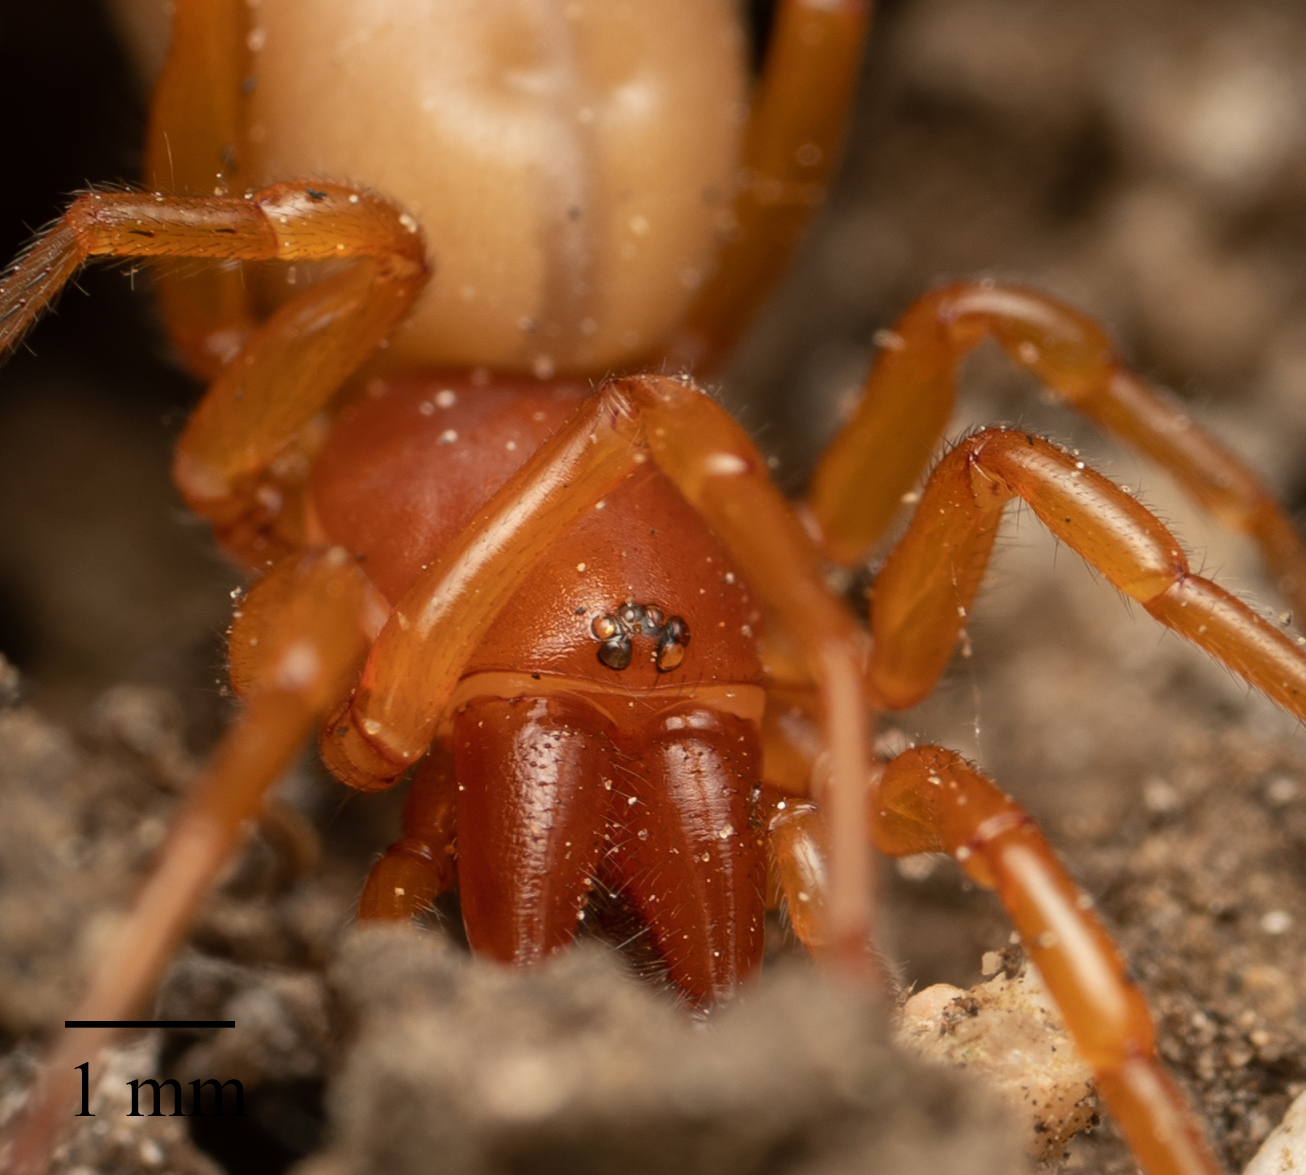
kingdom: Animalia
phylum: Arthropoda
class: Arachnida
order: Araneae
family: Dysderidae
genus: Dysdera
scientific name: Dysdera crocata
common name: Woodlouse spider
